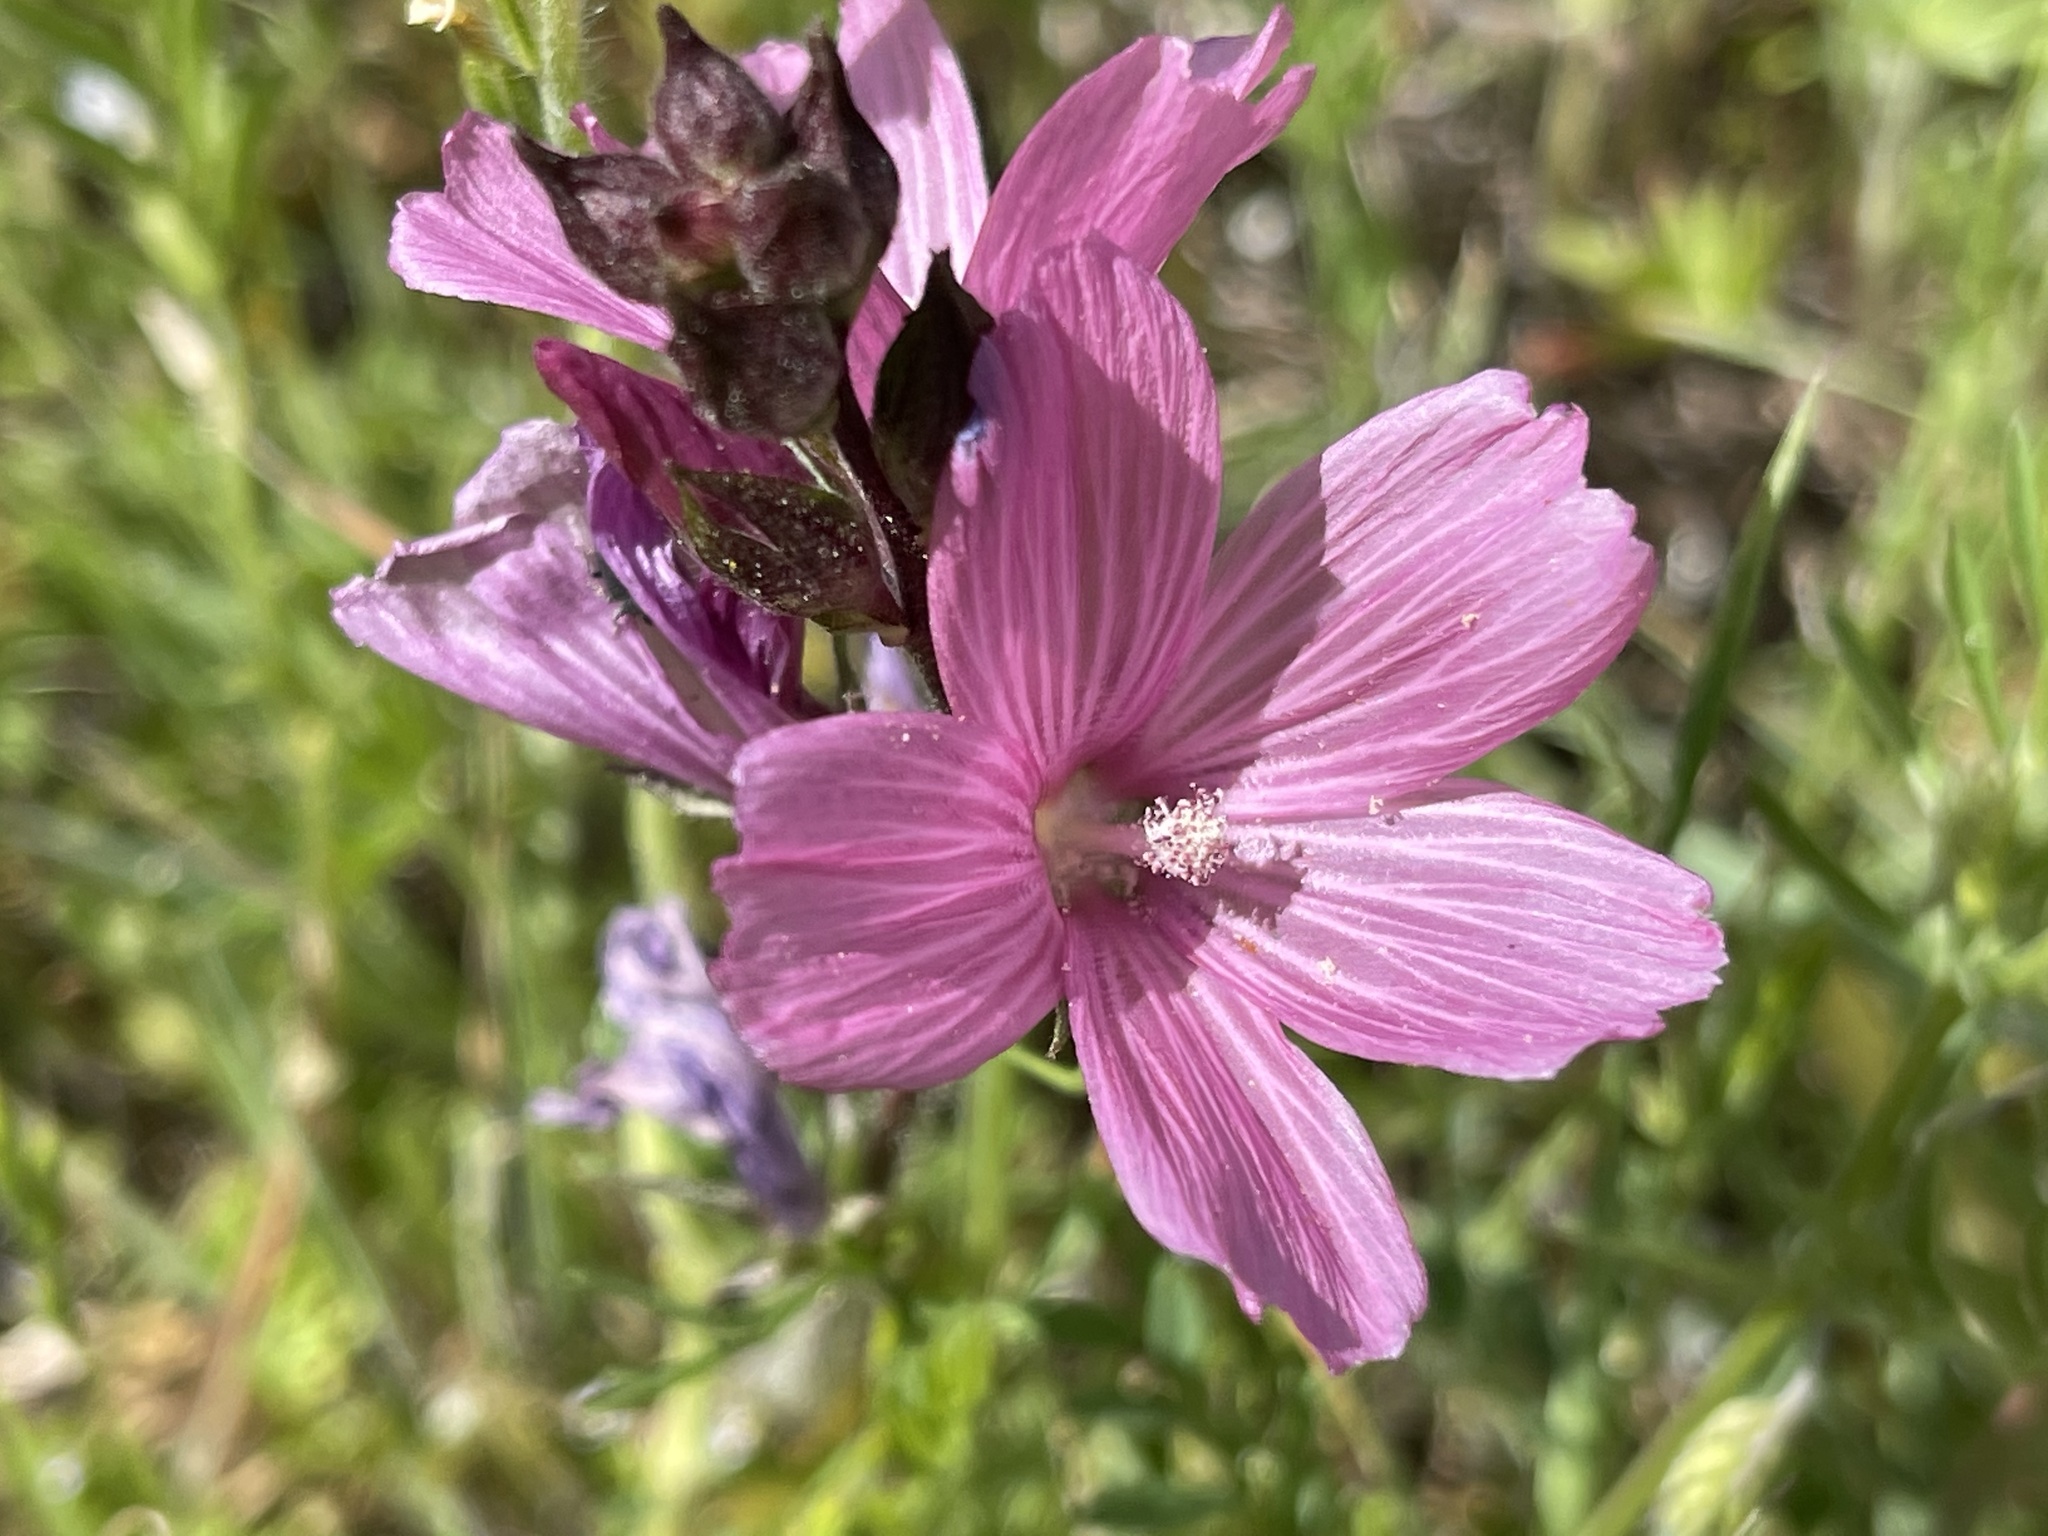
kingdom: Plantae
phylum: Tracheophyta
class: Magnoliopsida
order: Malvales
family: Malvaceae
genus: Sidalcea
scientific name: Sidalcea malviflora
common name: Greek mallow
